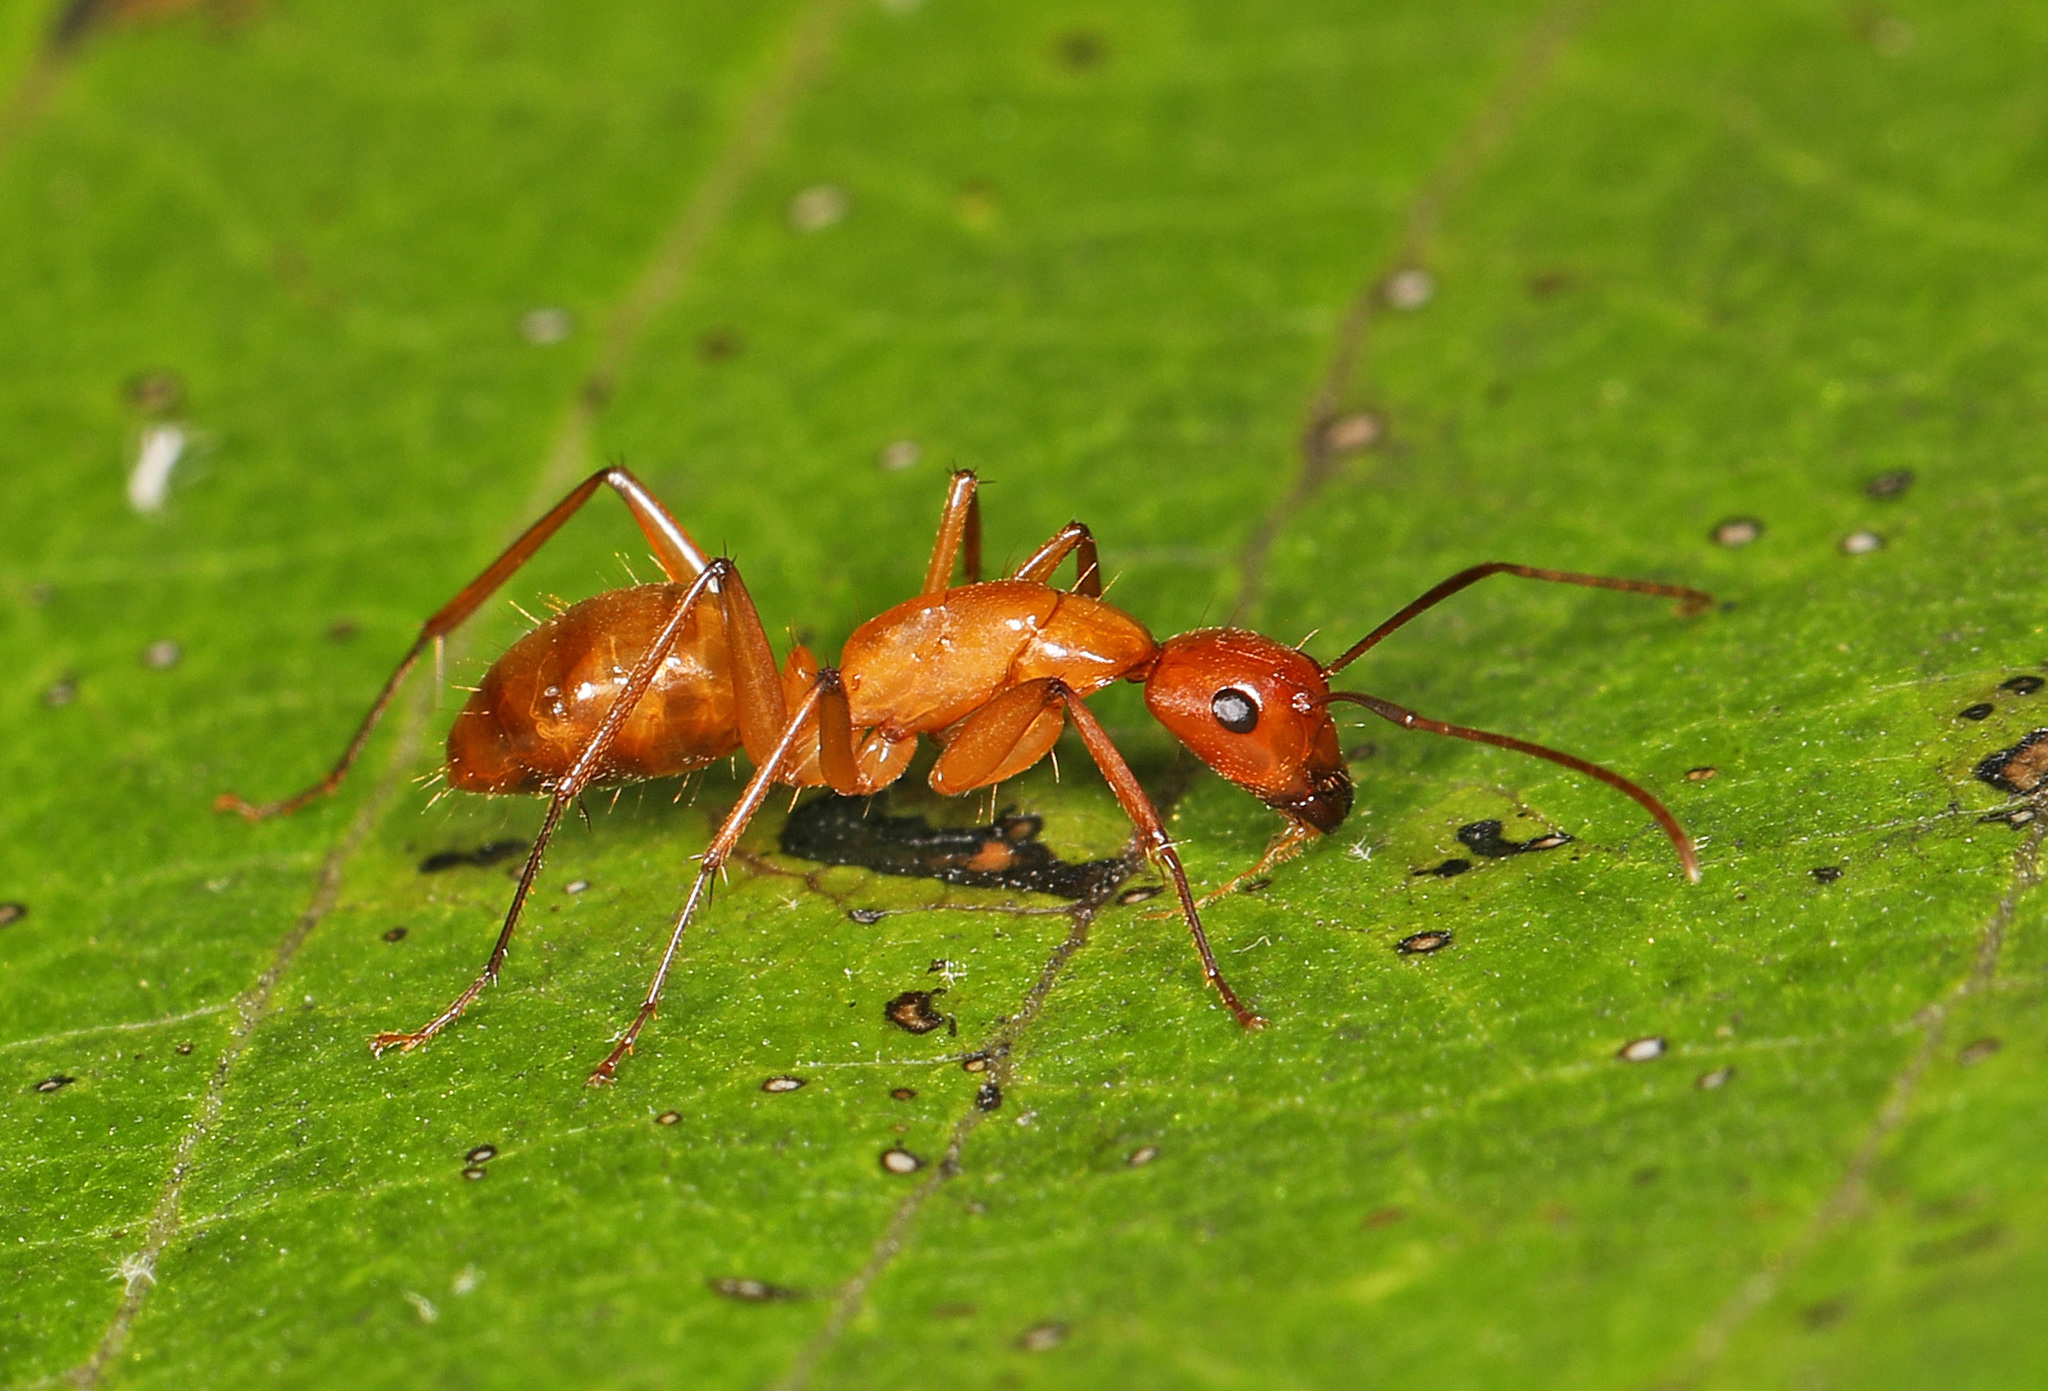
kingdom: Animalia
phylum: Arthropoda
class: Insecta
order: Hymenoptera
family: Formicidae
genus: Camponotus
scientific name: Camponotus castaneus
